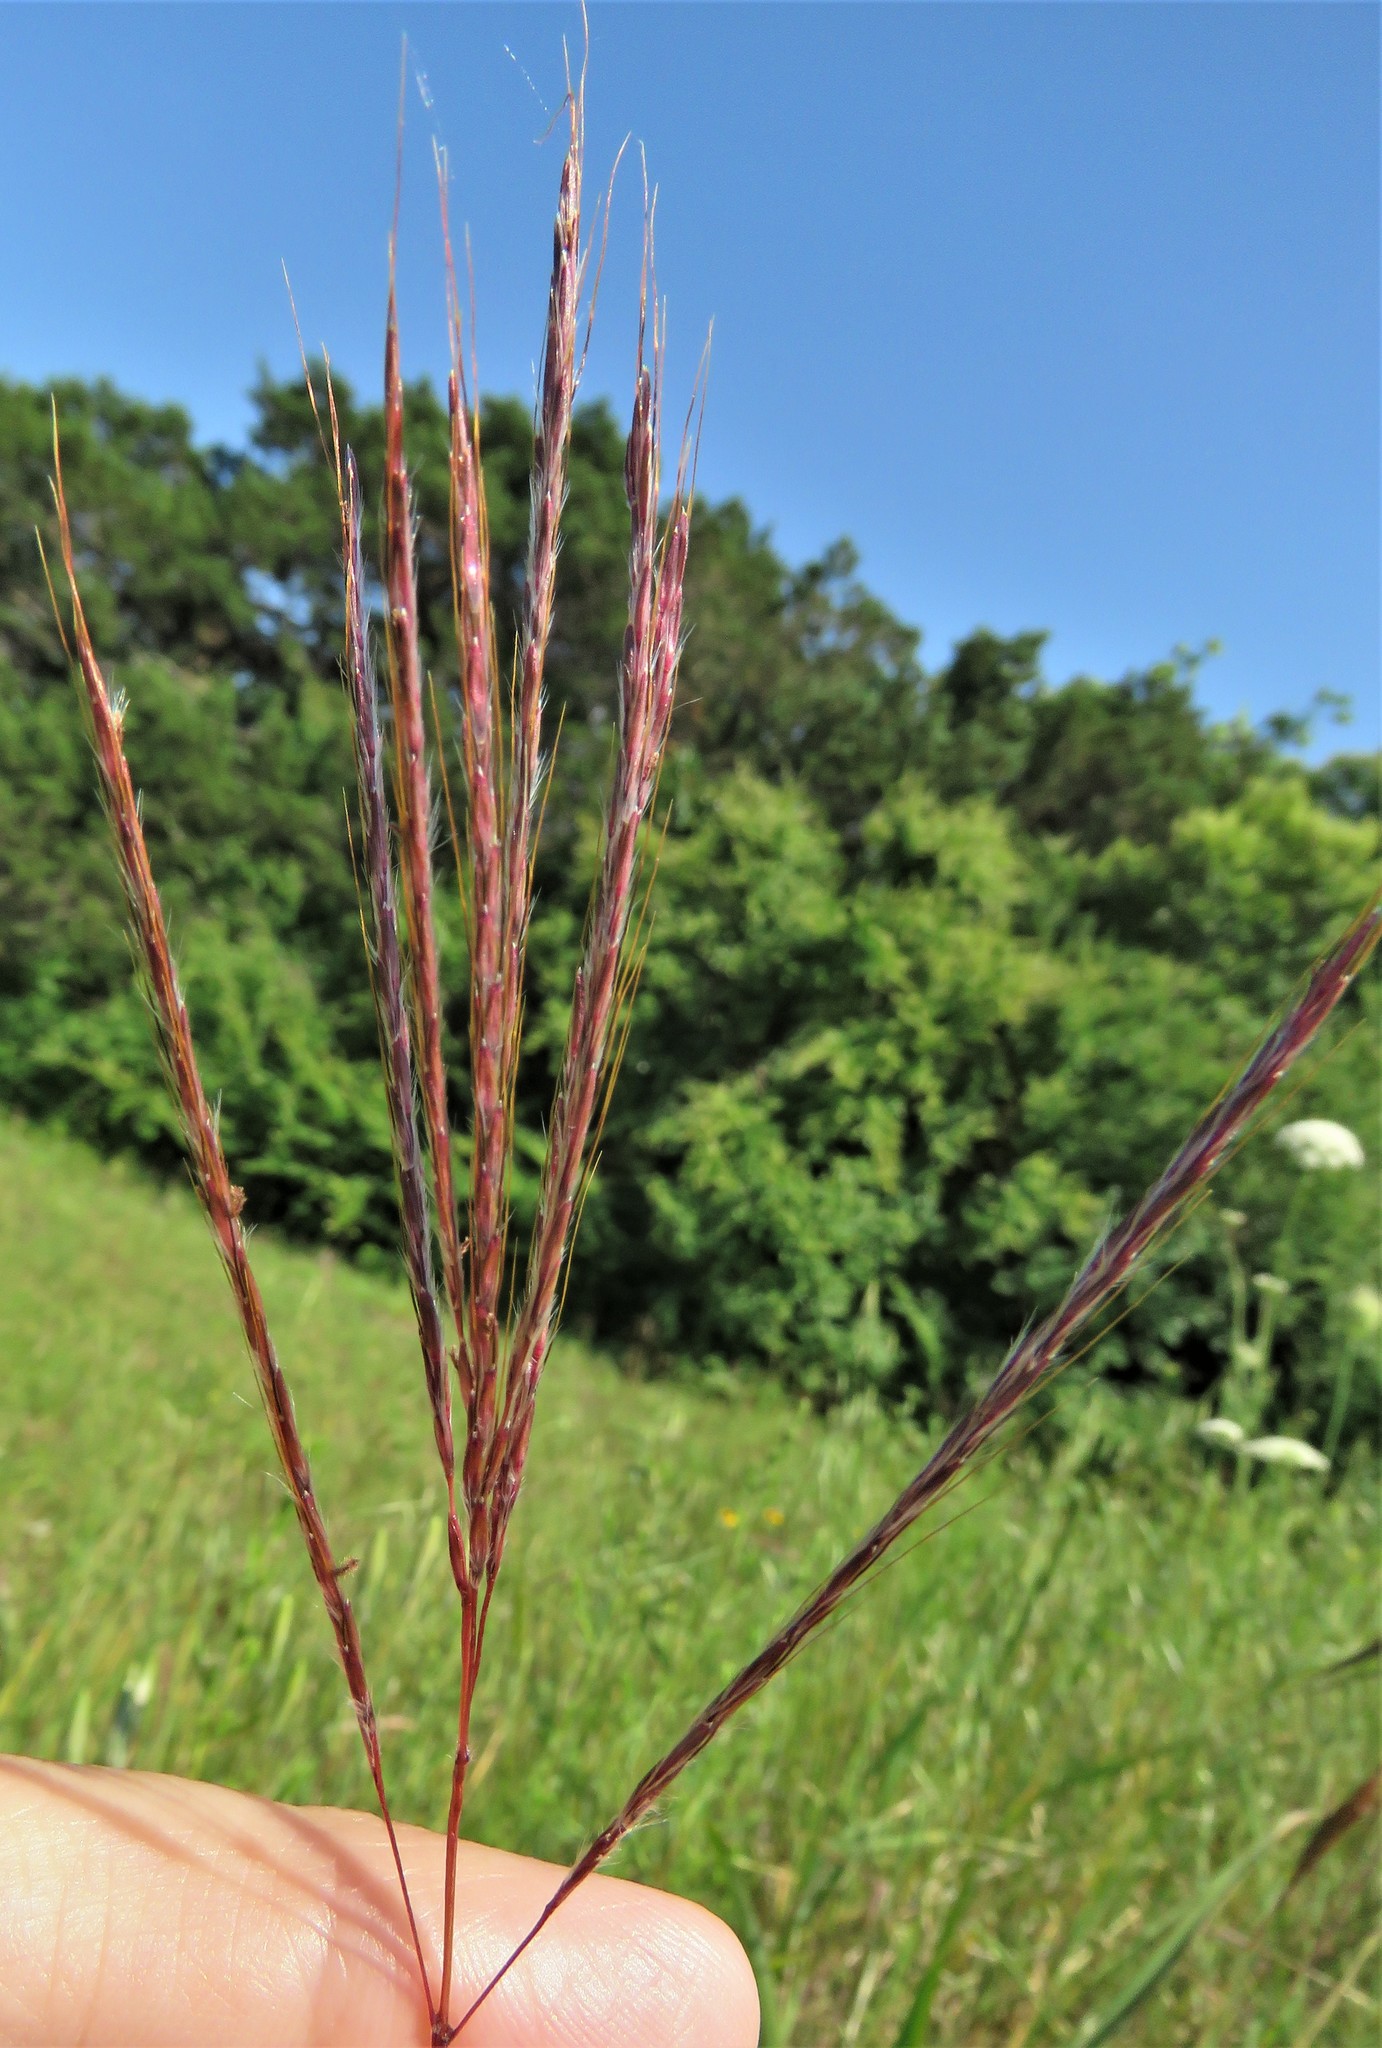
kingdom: Plantae
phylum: Tracheophyta
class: Liliopsida
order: Poales
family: Poaceae
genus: Bothriochloa
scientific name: Bothriochloa ischaemum
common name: Yellow bluestem
